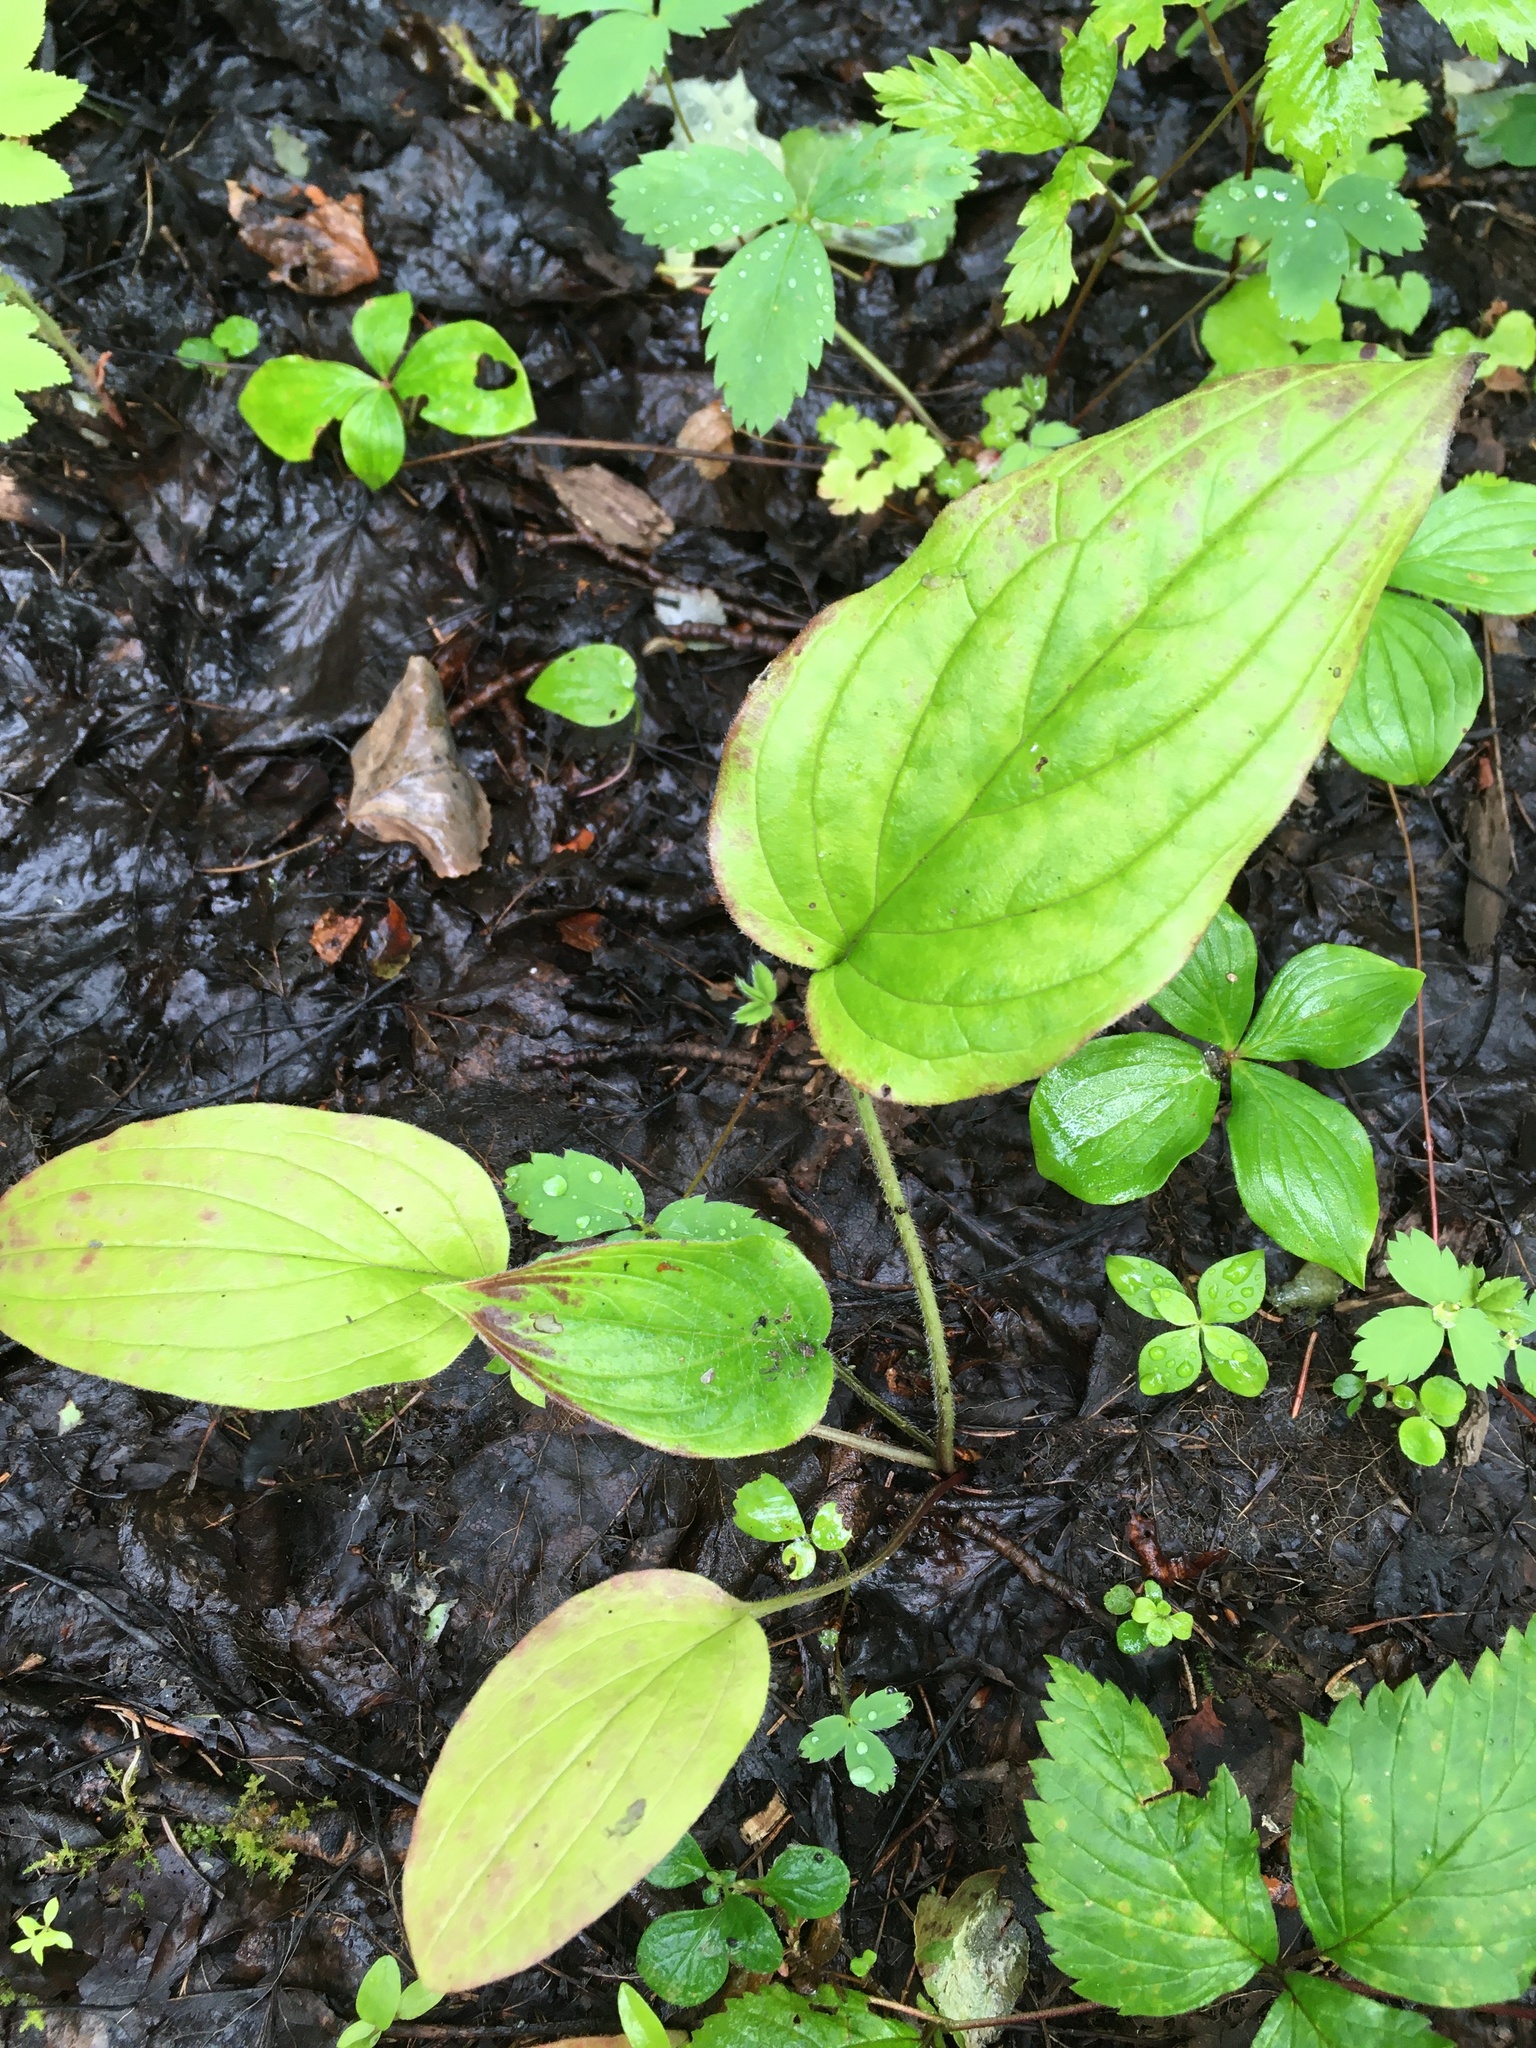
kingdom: Plantae
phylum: Tracheophyta
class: Magnoliopsida
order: Boraginales
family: Boraginaceae
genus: Mertensia
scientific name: Mertensia paniculata
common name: Panicled bluebells
